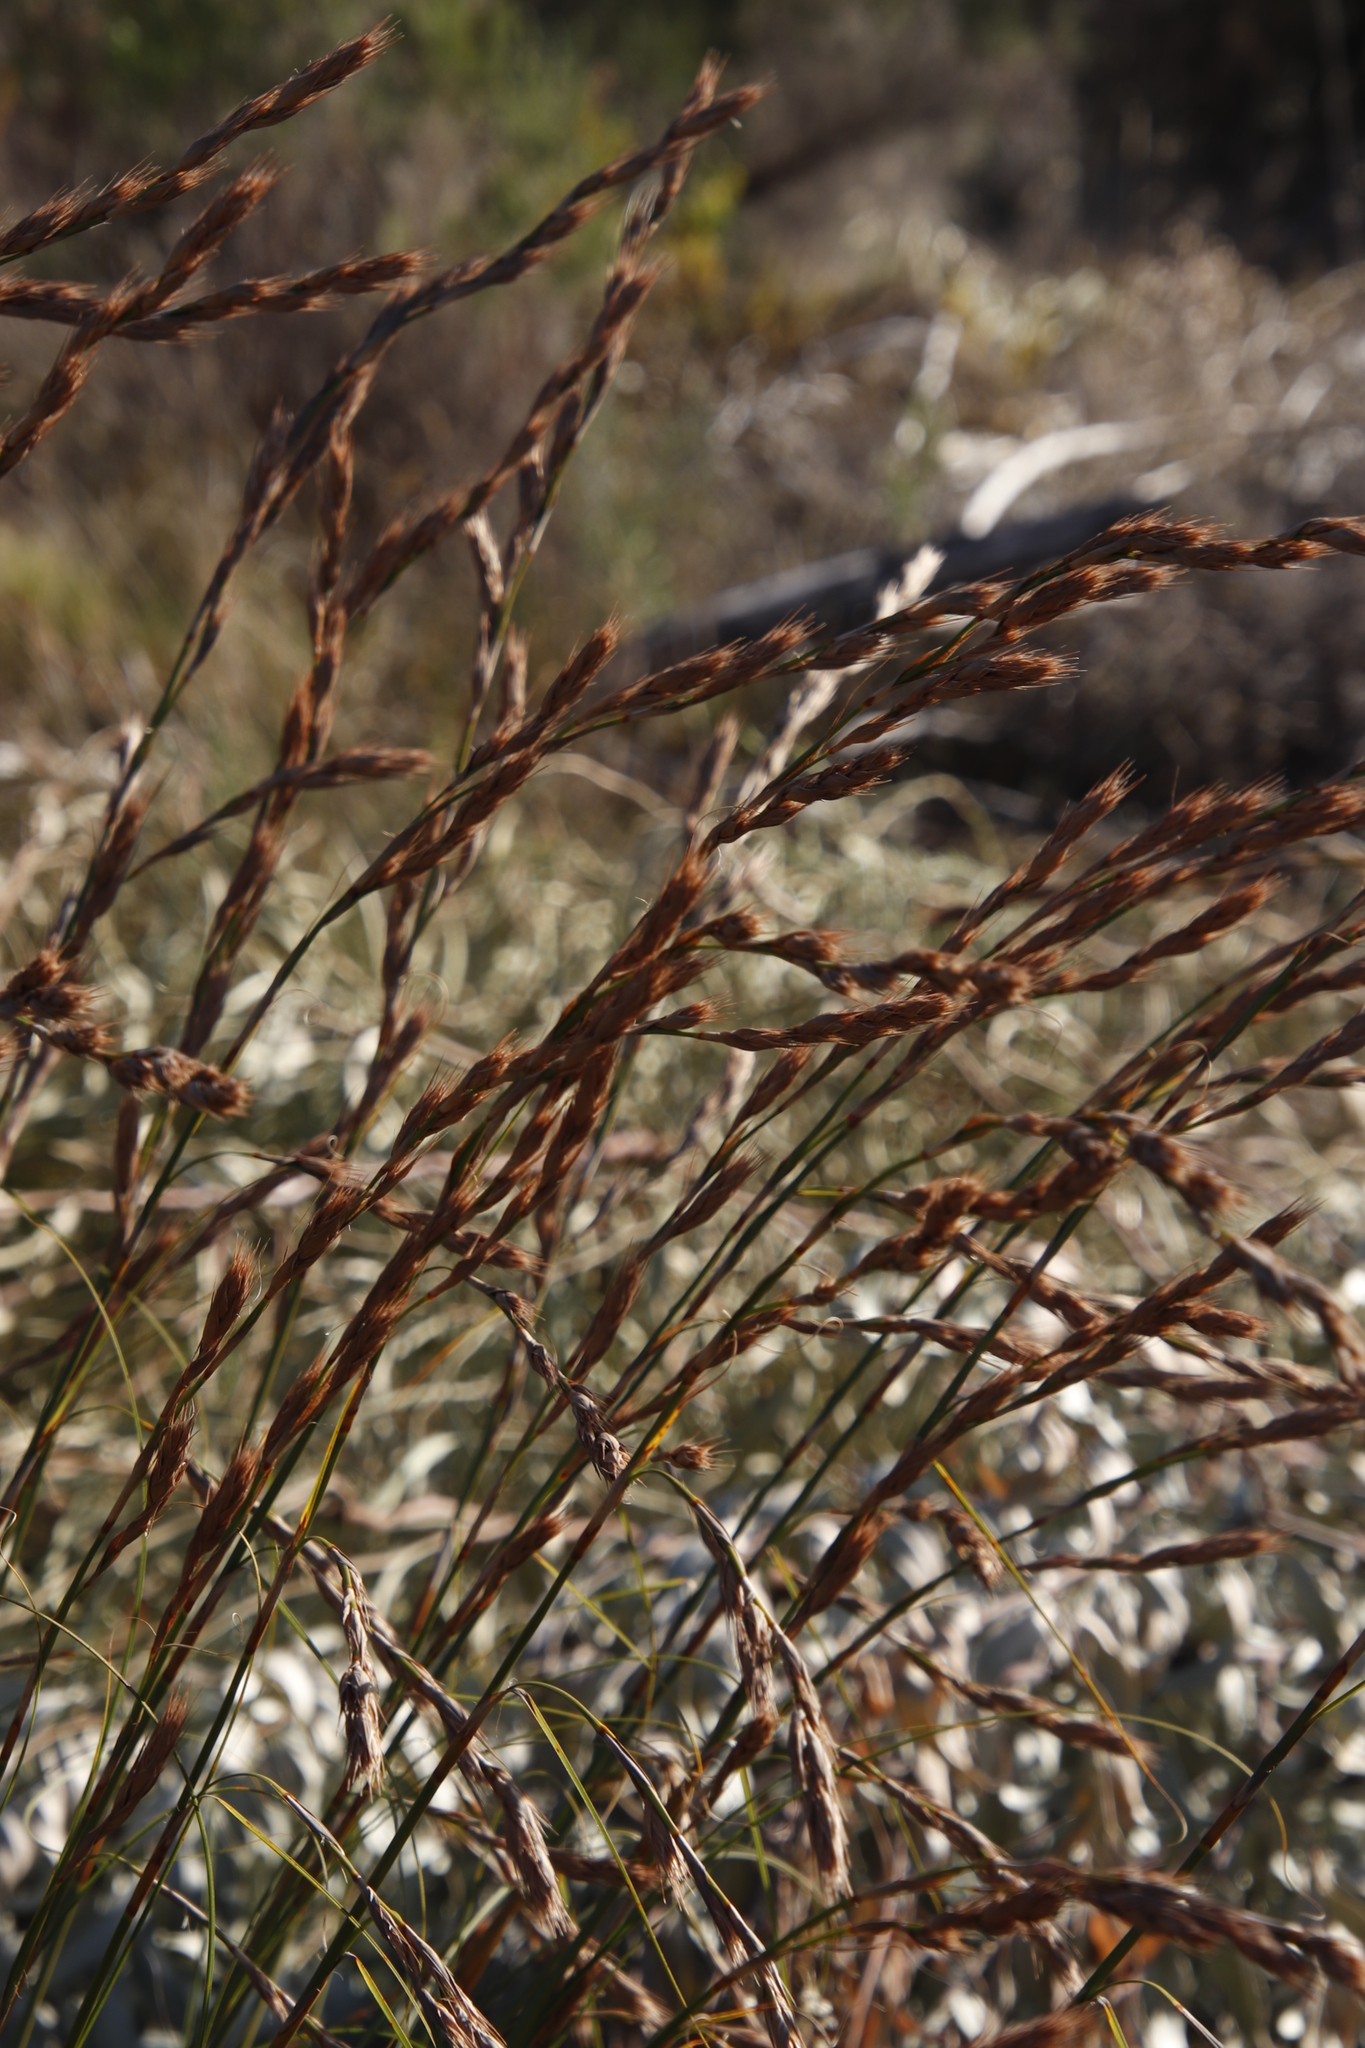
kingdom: Plantae
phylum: Tracheophyta
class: Liliopsida
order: Poales
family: Cyperaceae
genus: Tetraria
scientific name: Tetraria bromoides
